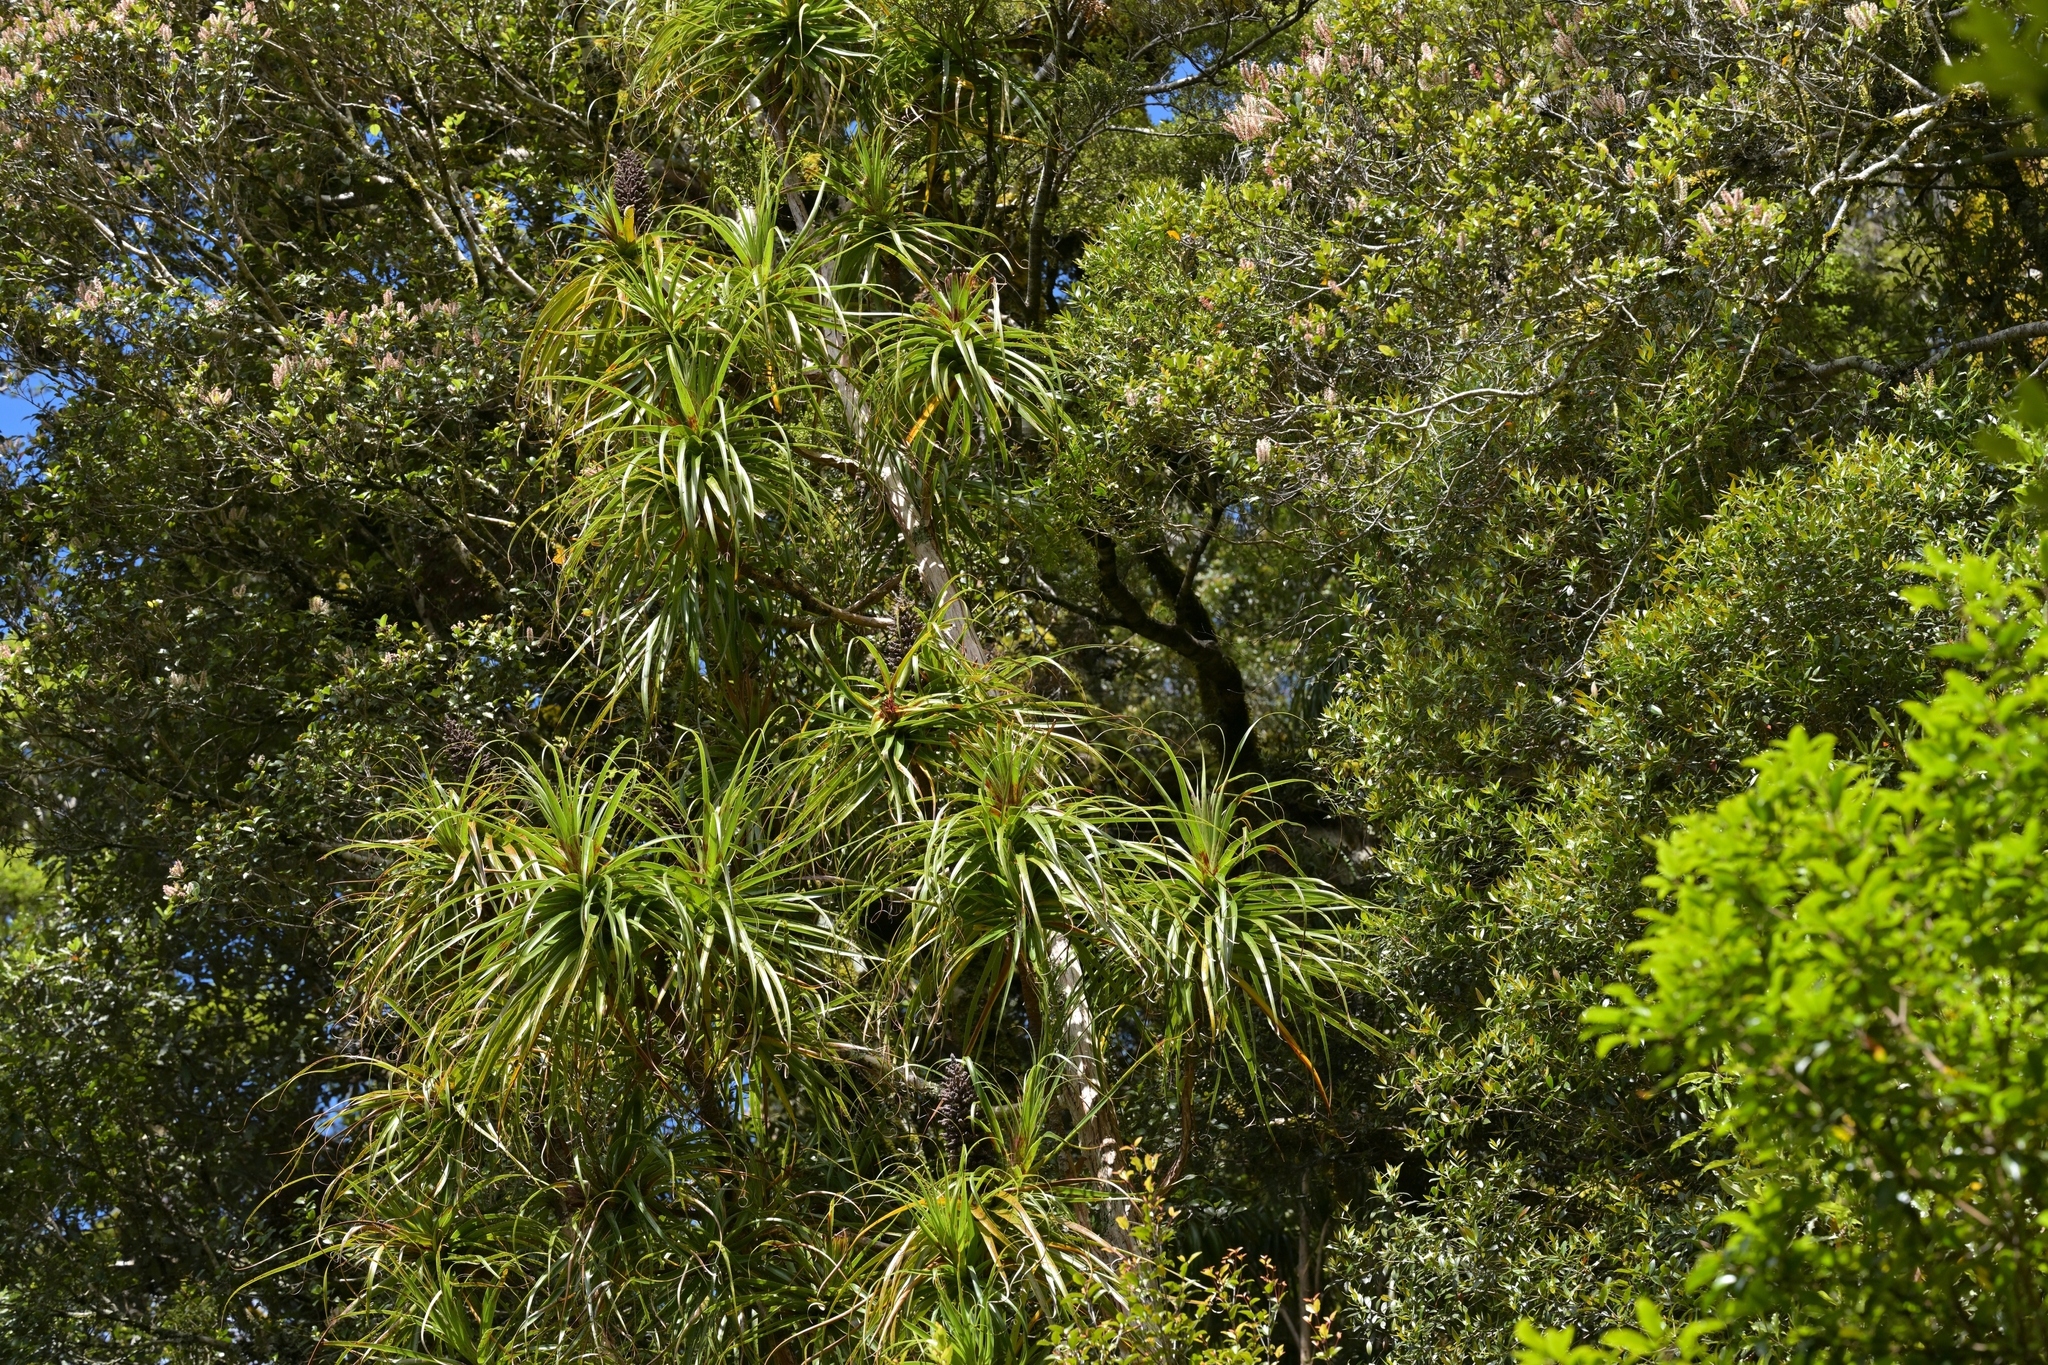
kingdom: Plantae
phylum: Tracheophyta
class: Magnoliopsida
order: Ericales
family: Ericaceae
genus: Dracophyllum
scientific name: Dracophyllum traversii
